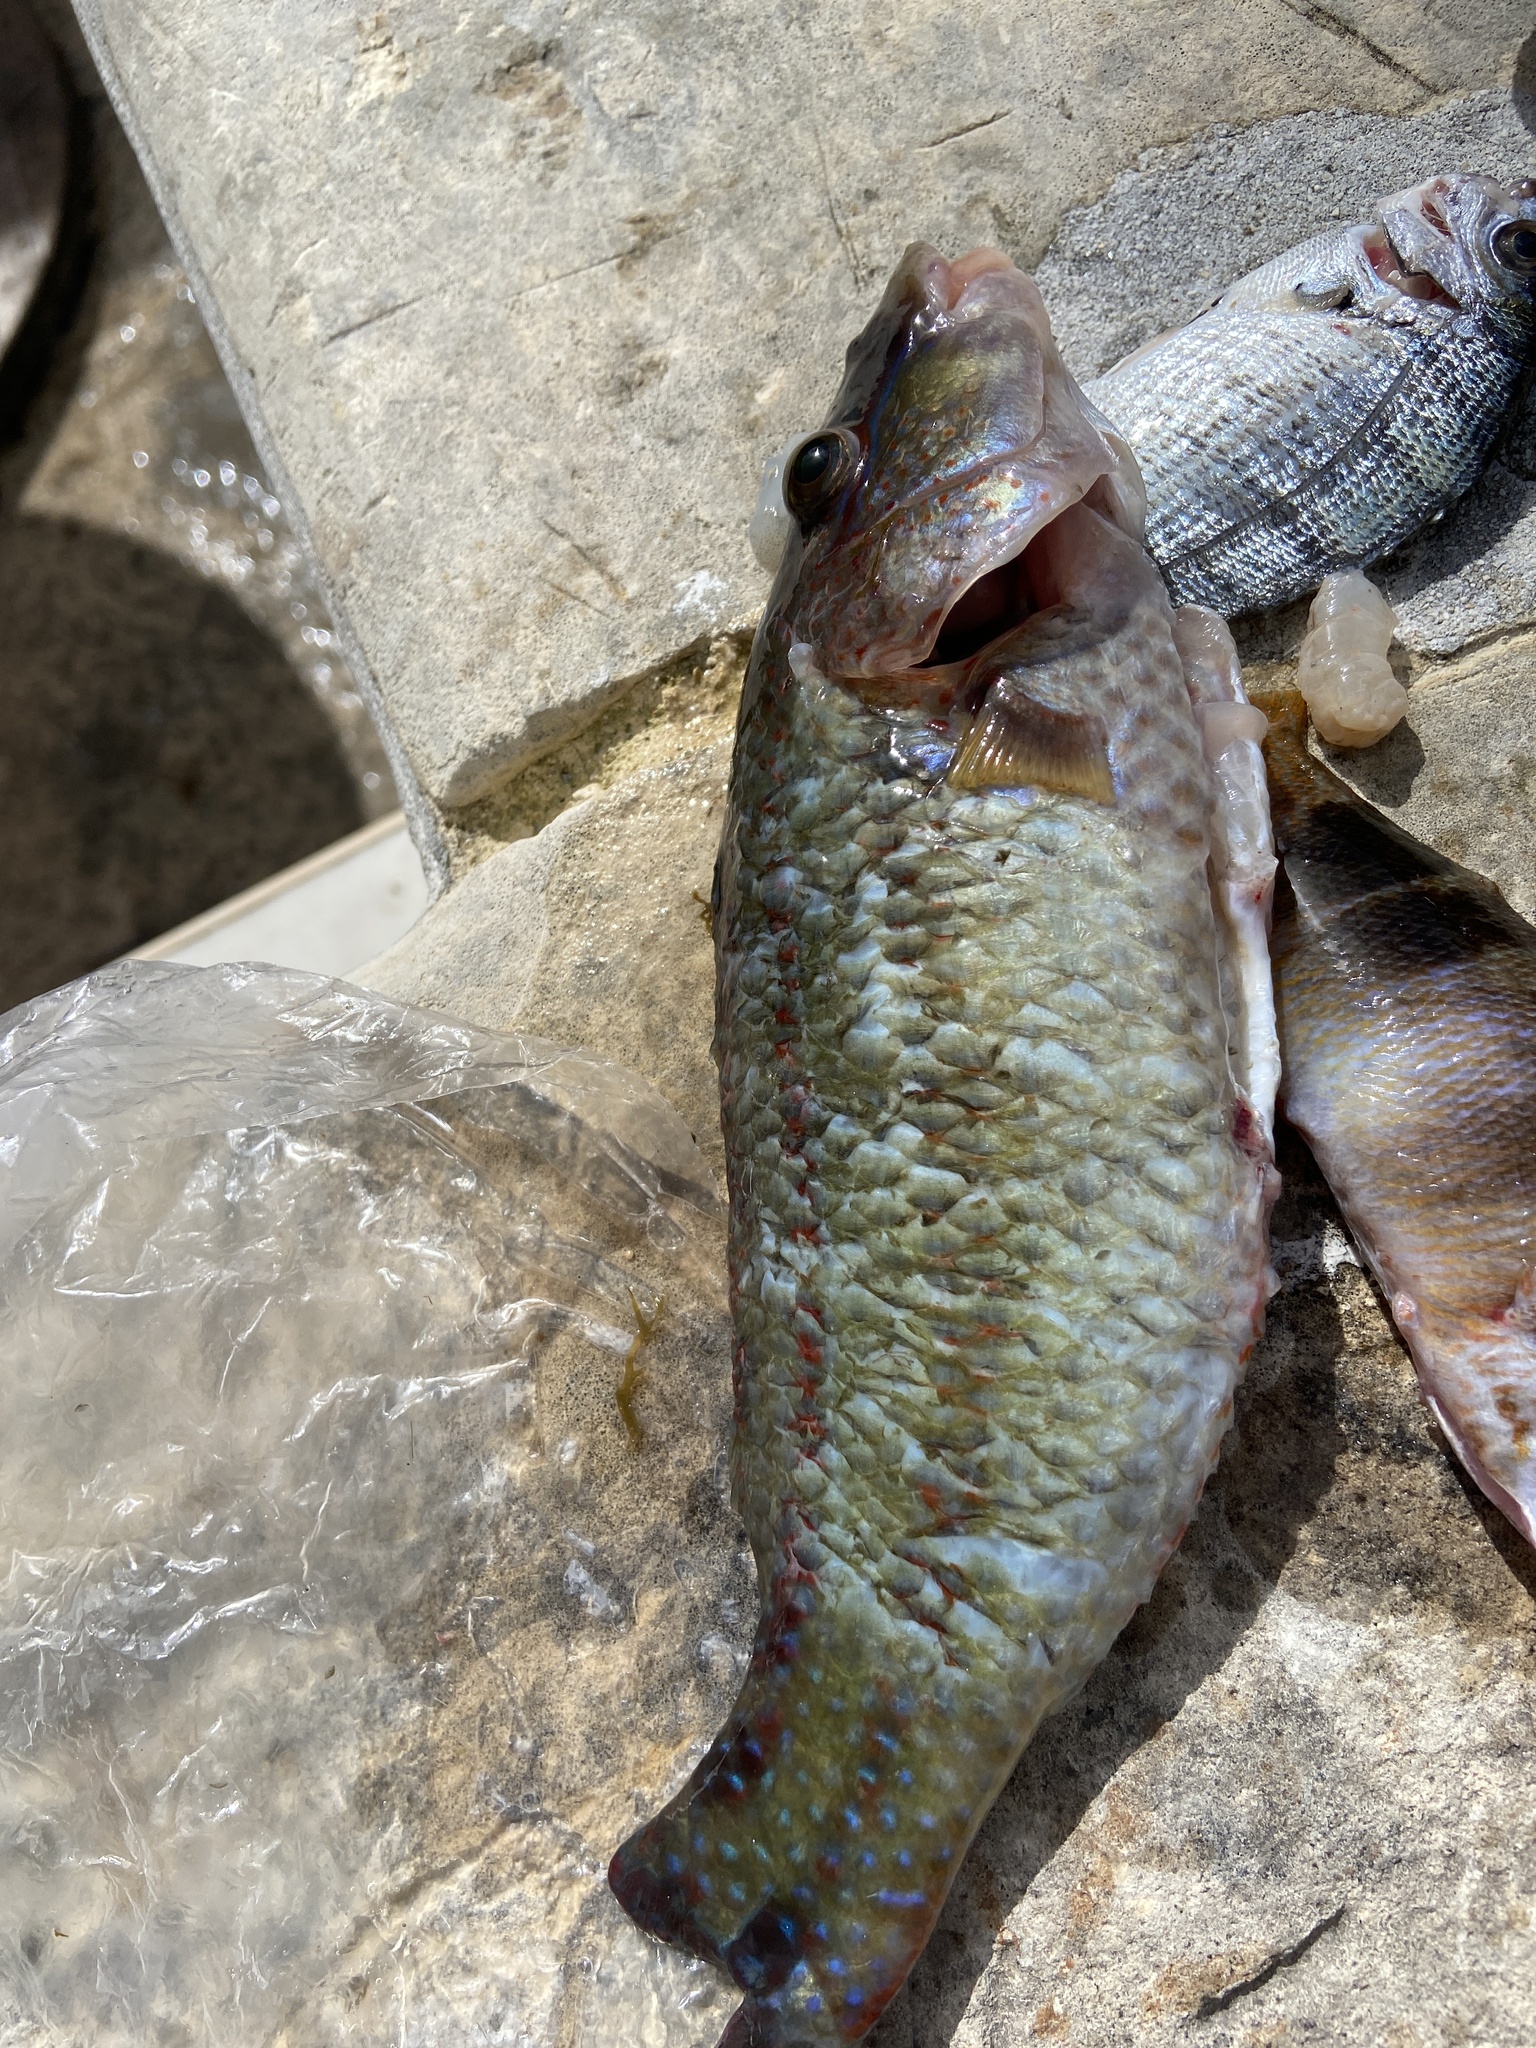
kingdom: Animalia
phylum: Chordata
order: Perciformes
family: Labridae
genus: Symphodus
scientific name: Symphodus tinca
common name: Peacock wrasse
